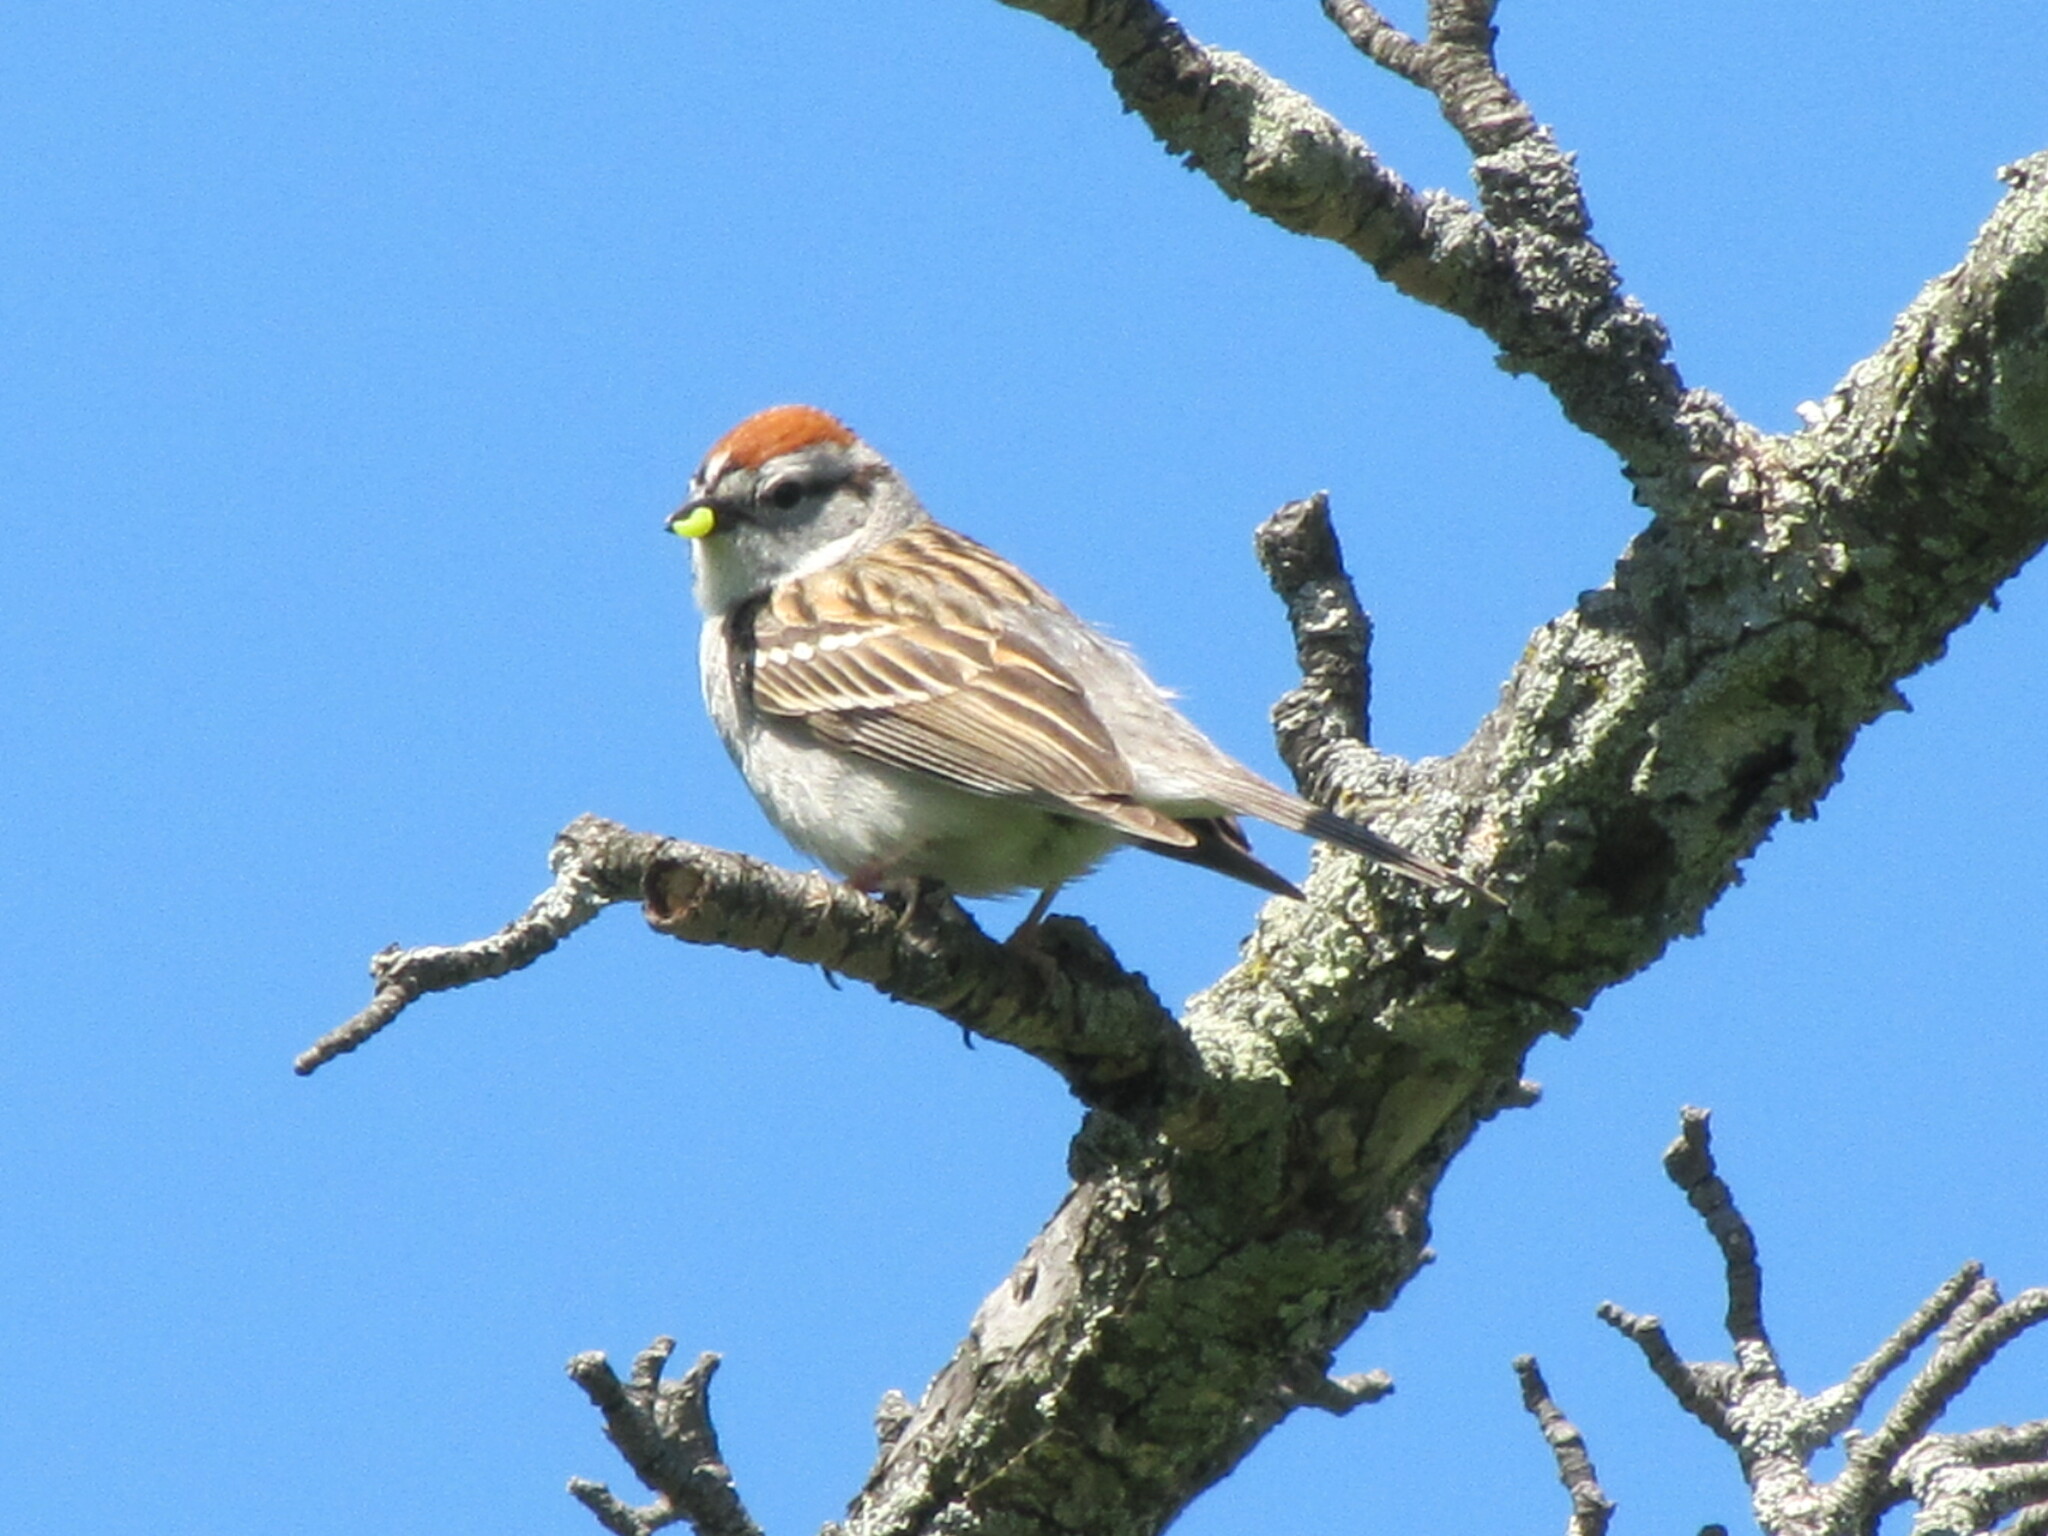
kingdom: Animalia
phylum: Chordata
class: Aves
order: Passeriformes
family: Passerellidae
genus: Spizella
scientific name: Spizella passerina
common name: Chipping sparrow
